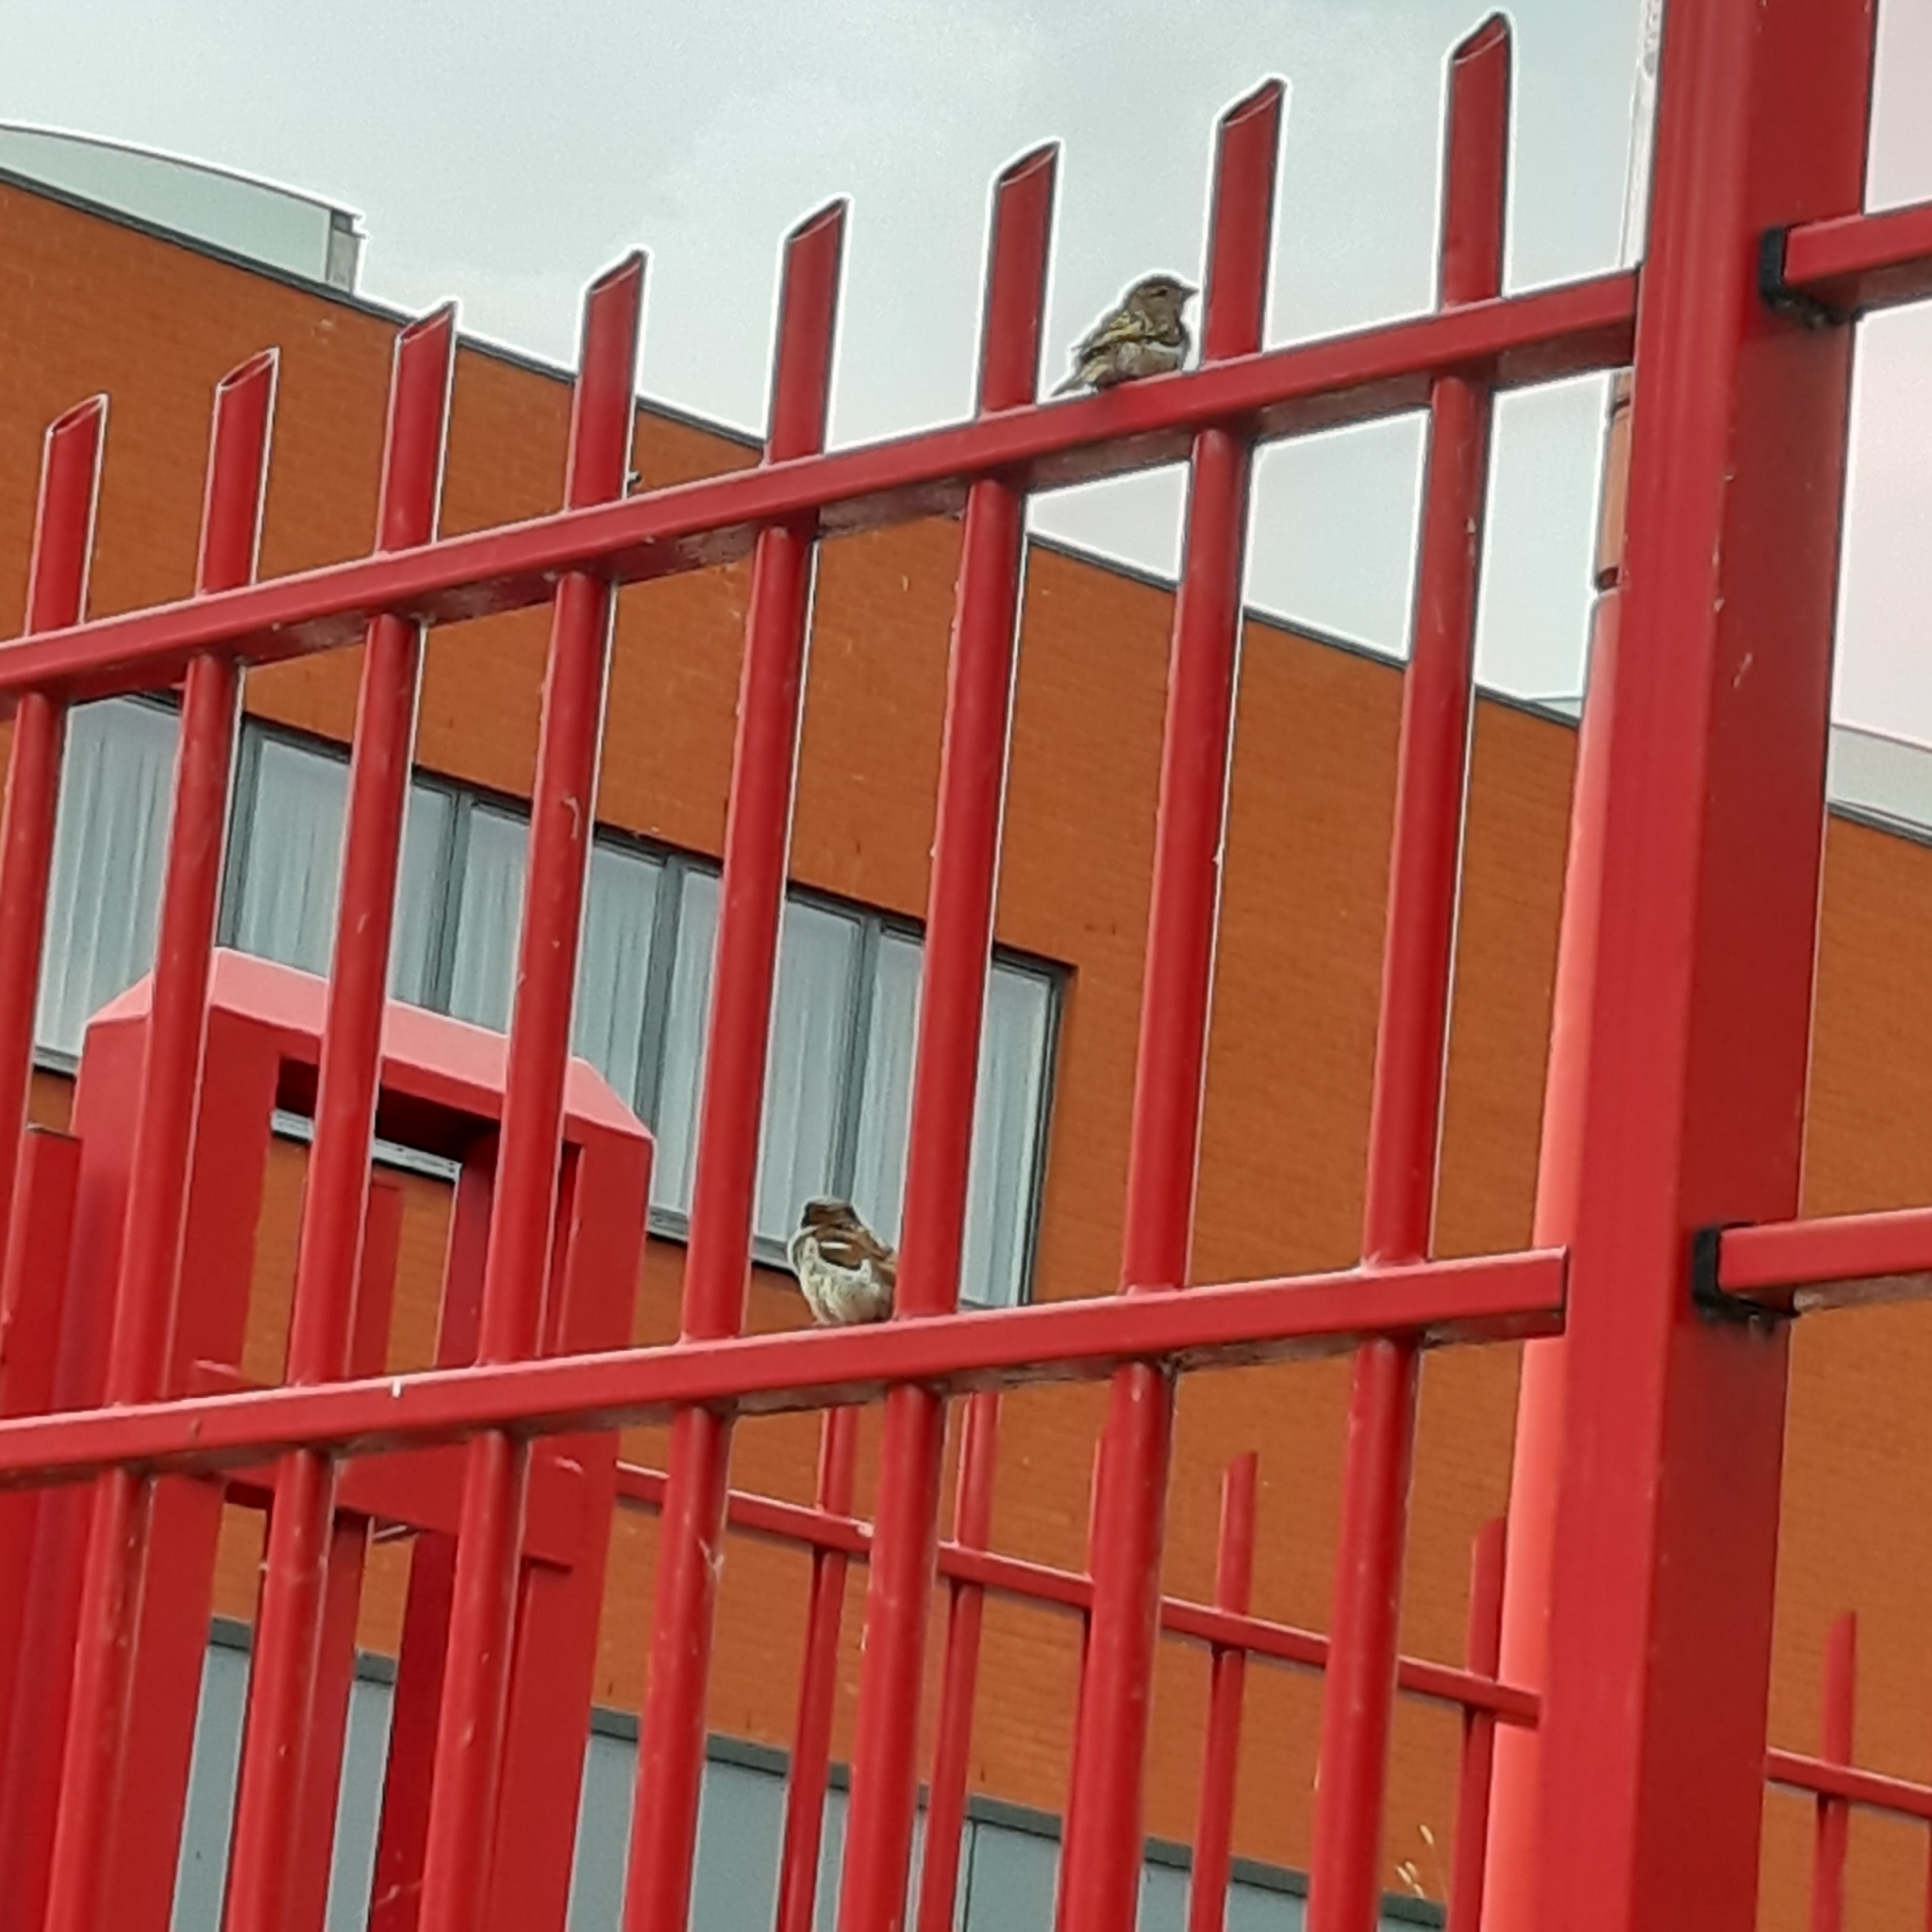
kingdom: Animalia
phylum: Chordata
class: Aves
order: Passeriformes
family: Passeridae
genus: Passer
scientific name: Passer domesticus
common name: House sparrow
